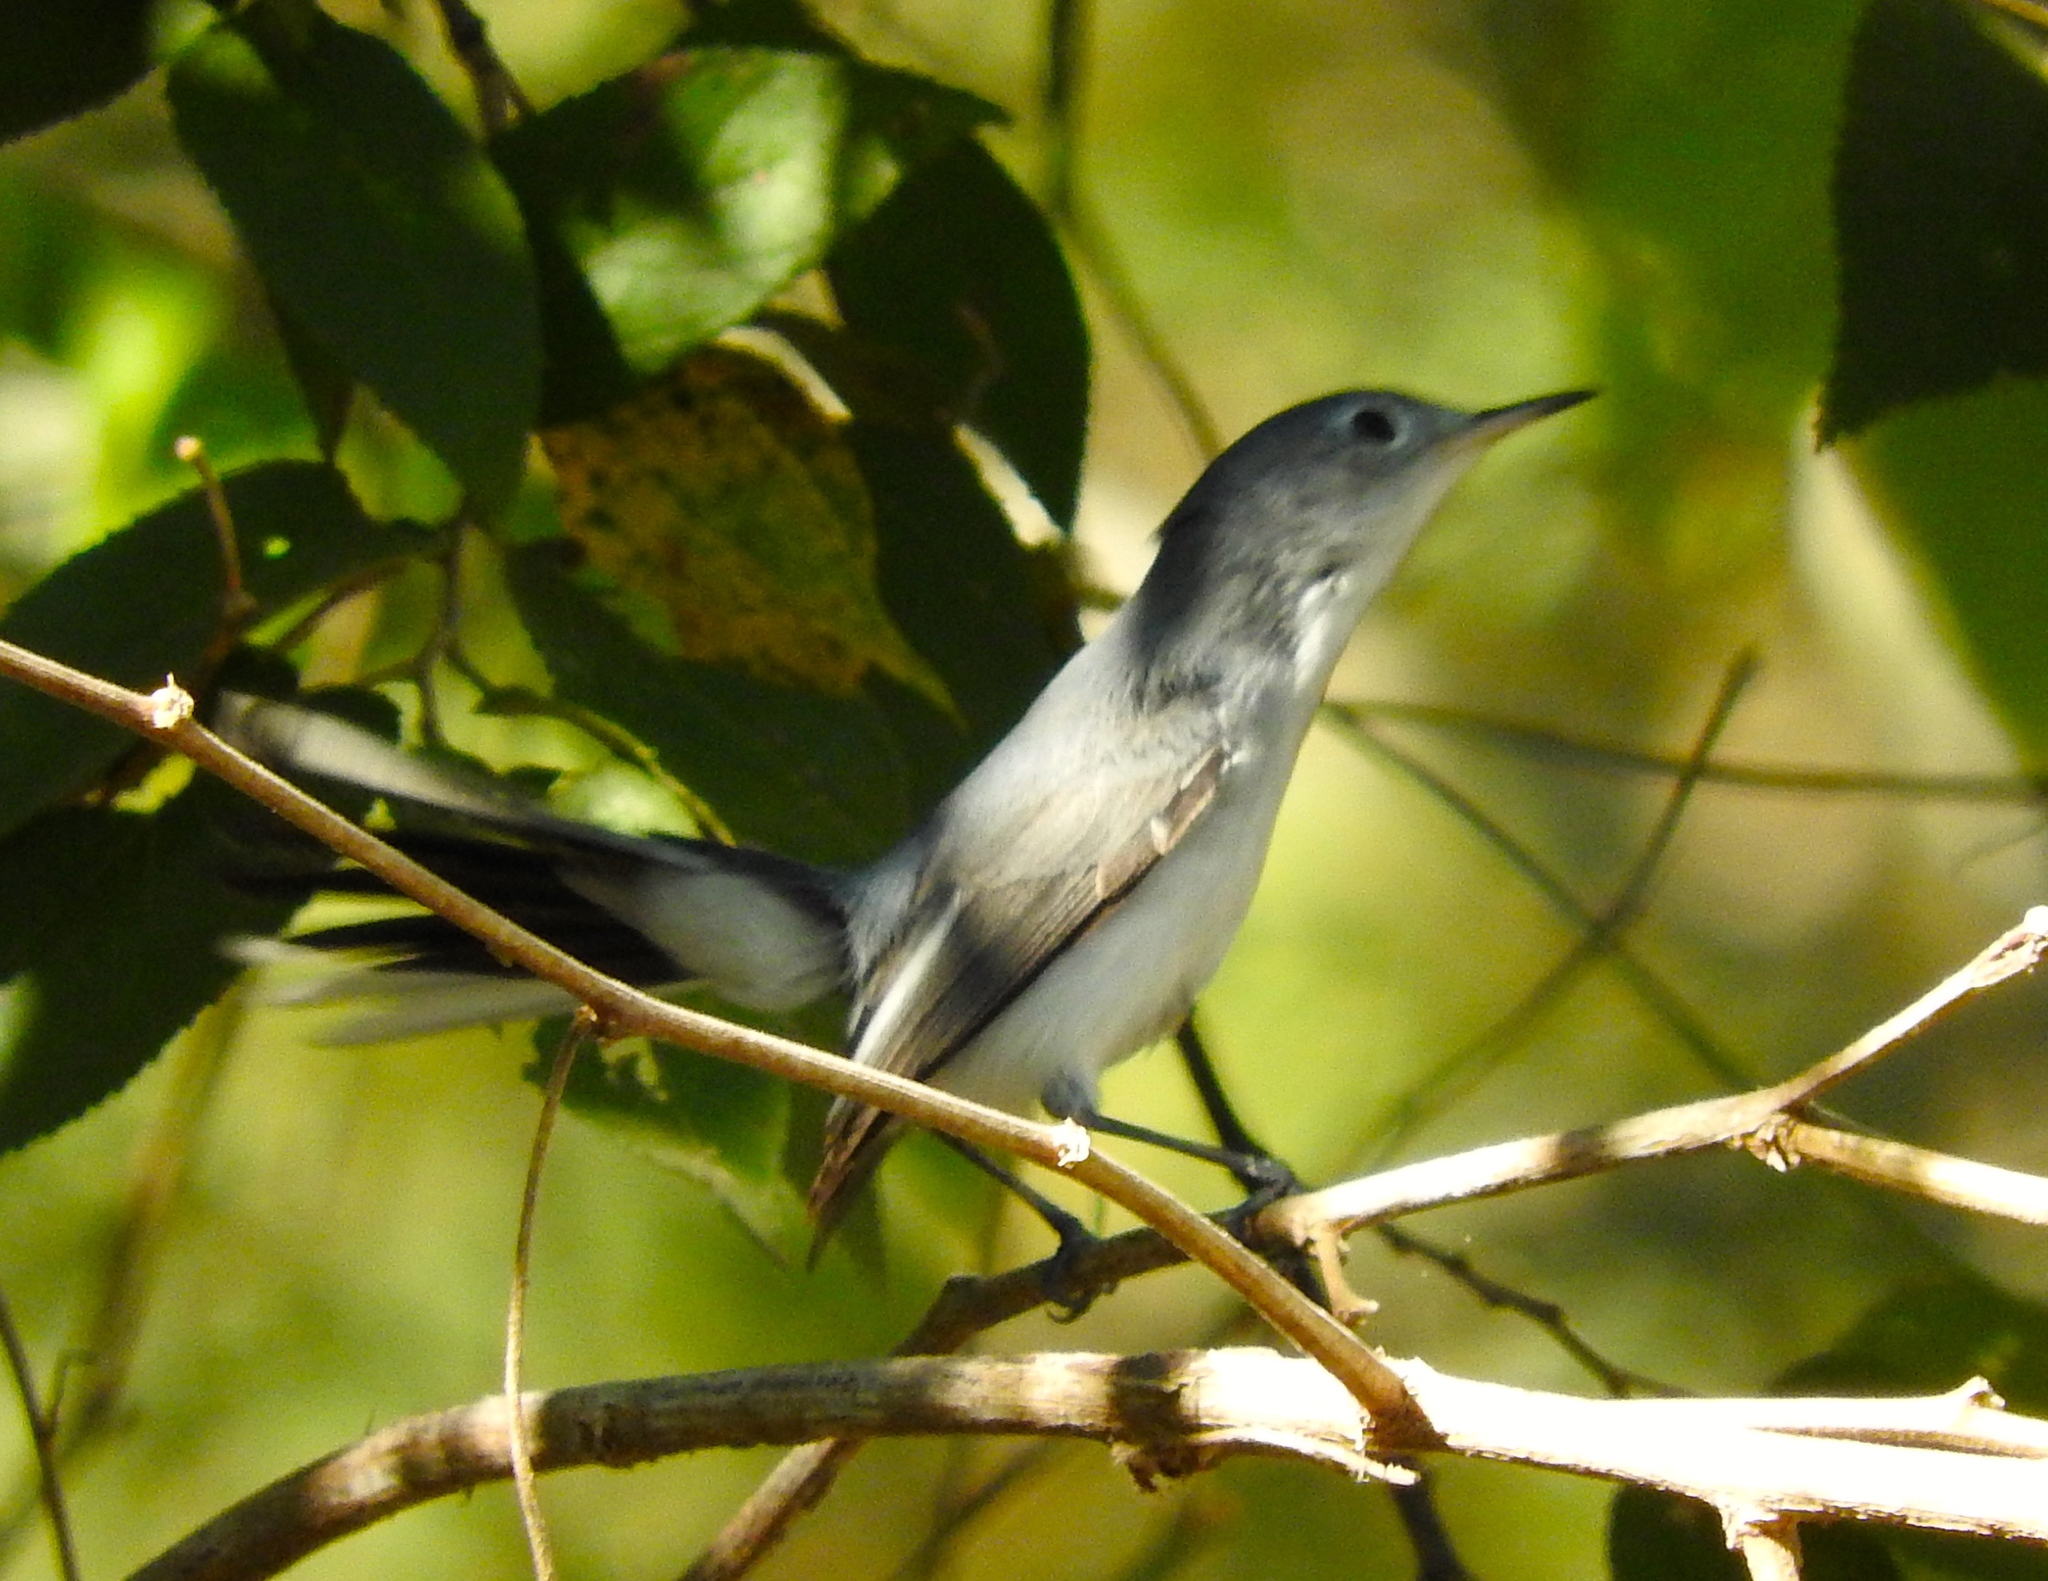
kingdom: Animalia
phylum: Chordata
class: Aves
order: Passeriformes
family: Polioptilidae
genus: Polioptila
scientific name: Polioptila caerulea
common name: Blue-gray gnatcatcher
